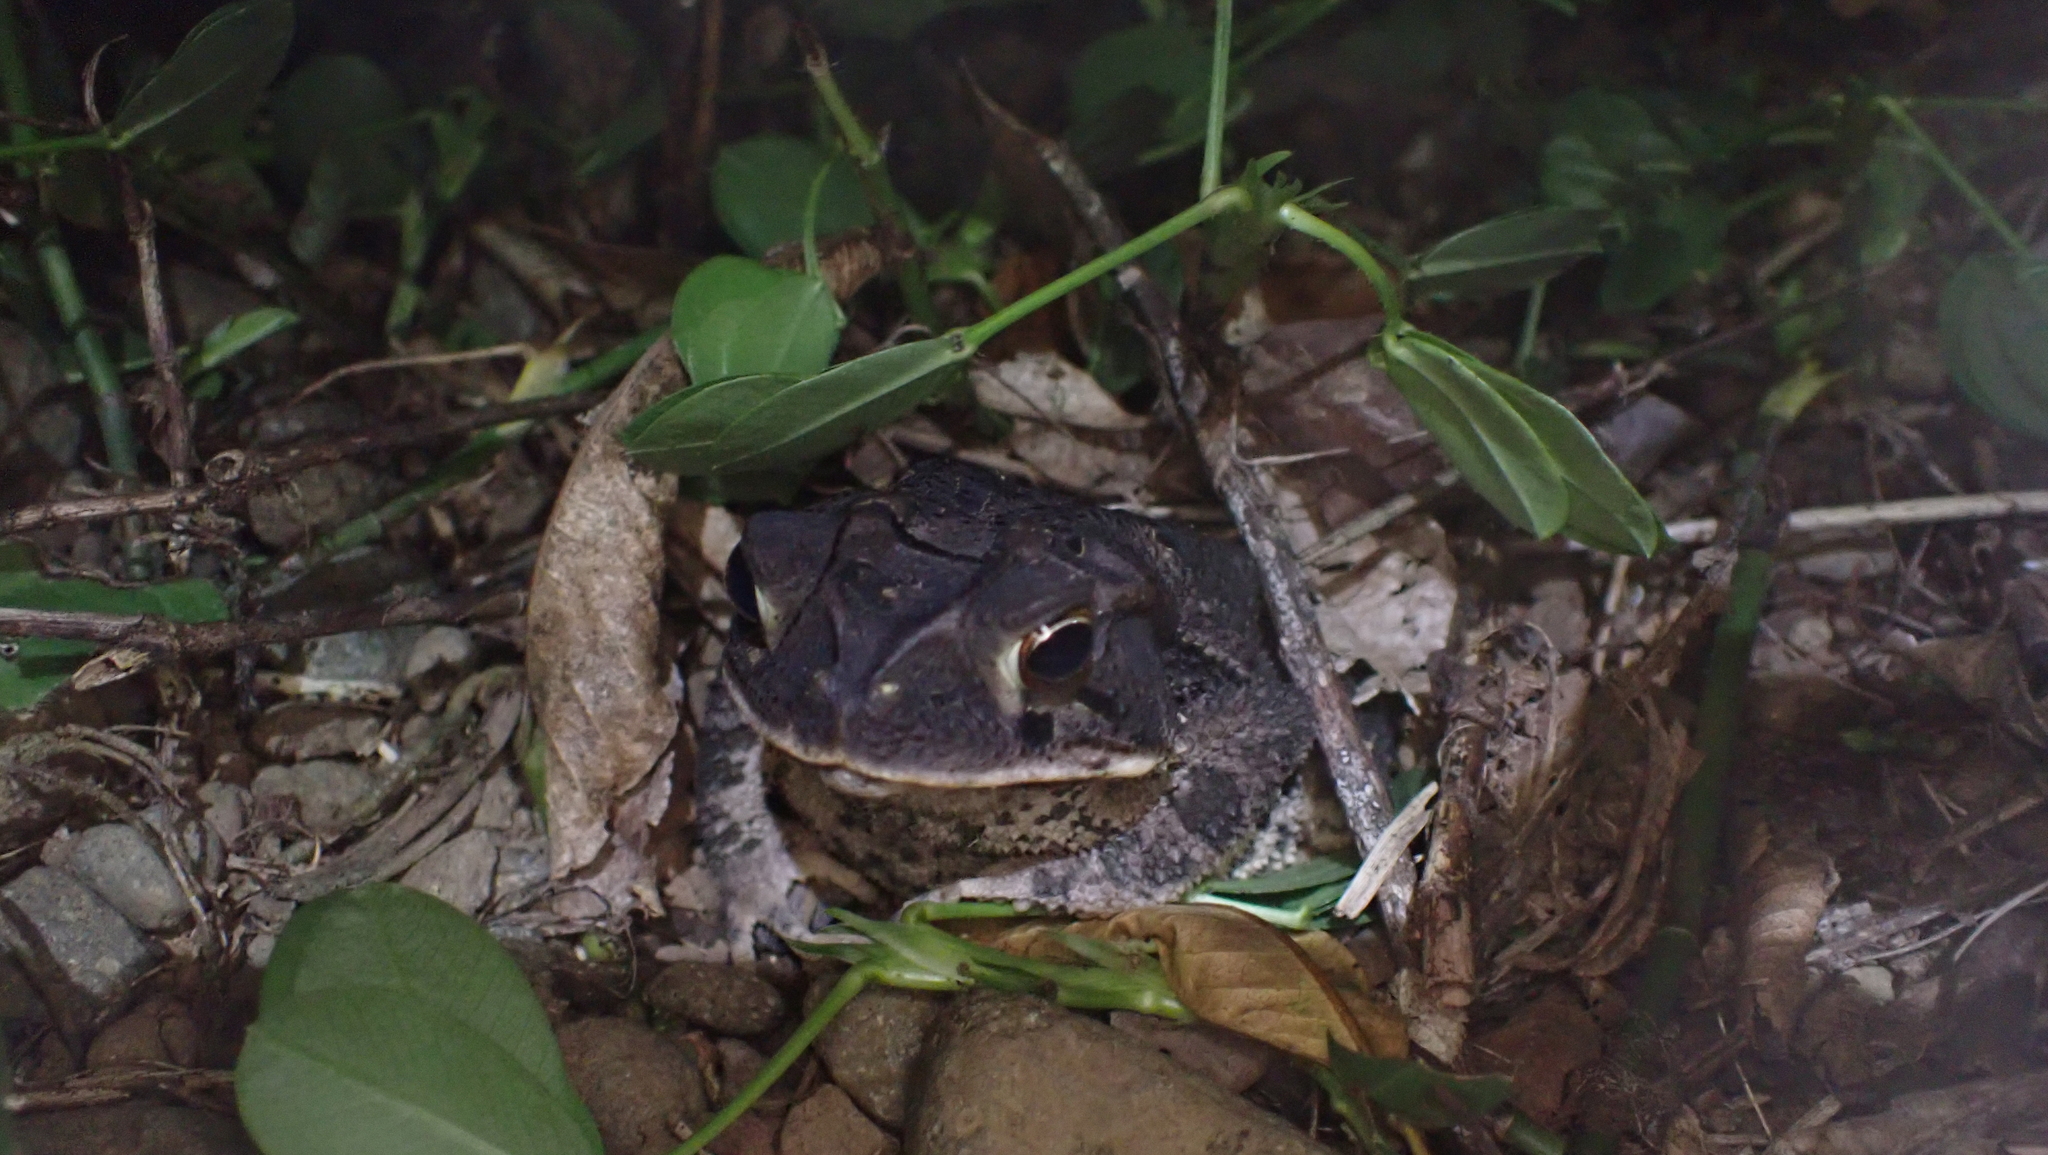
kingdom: Animalia
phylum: Chordata
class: Amphibia
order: Anura
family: Bufonidae
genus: Incilius
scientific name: Incilius melanochlorus
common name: Dark green toad
